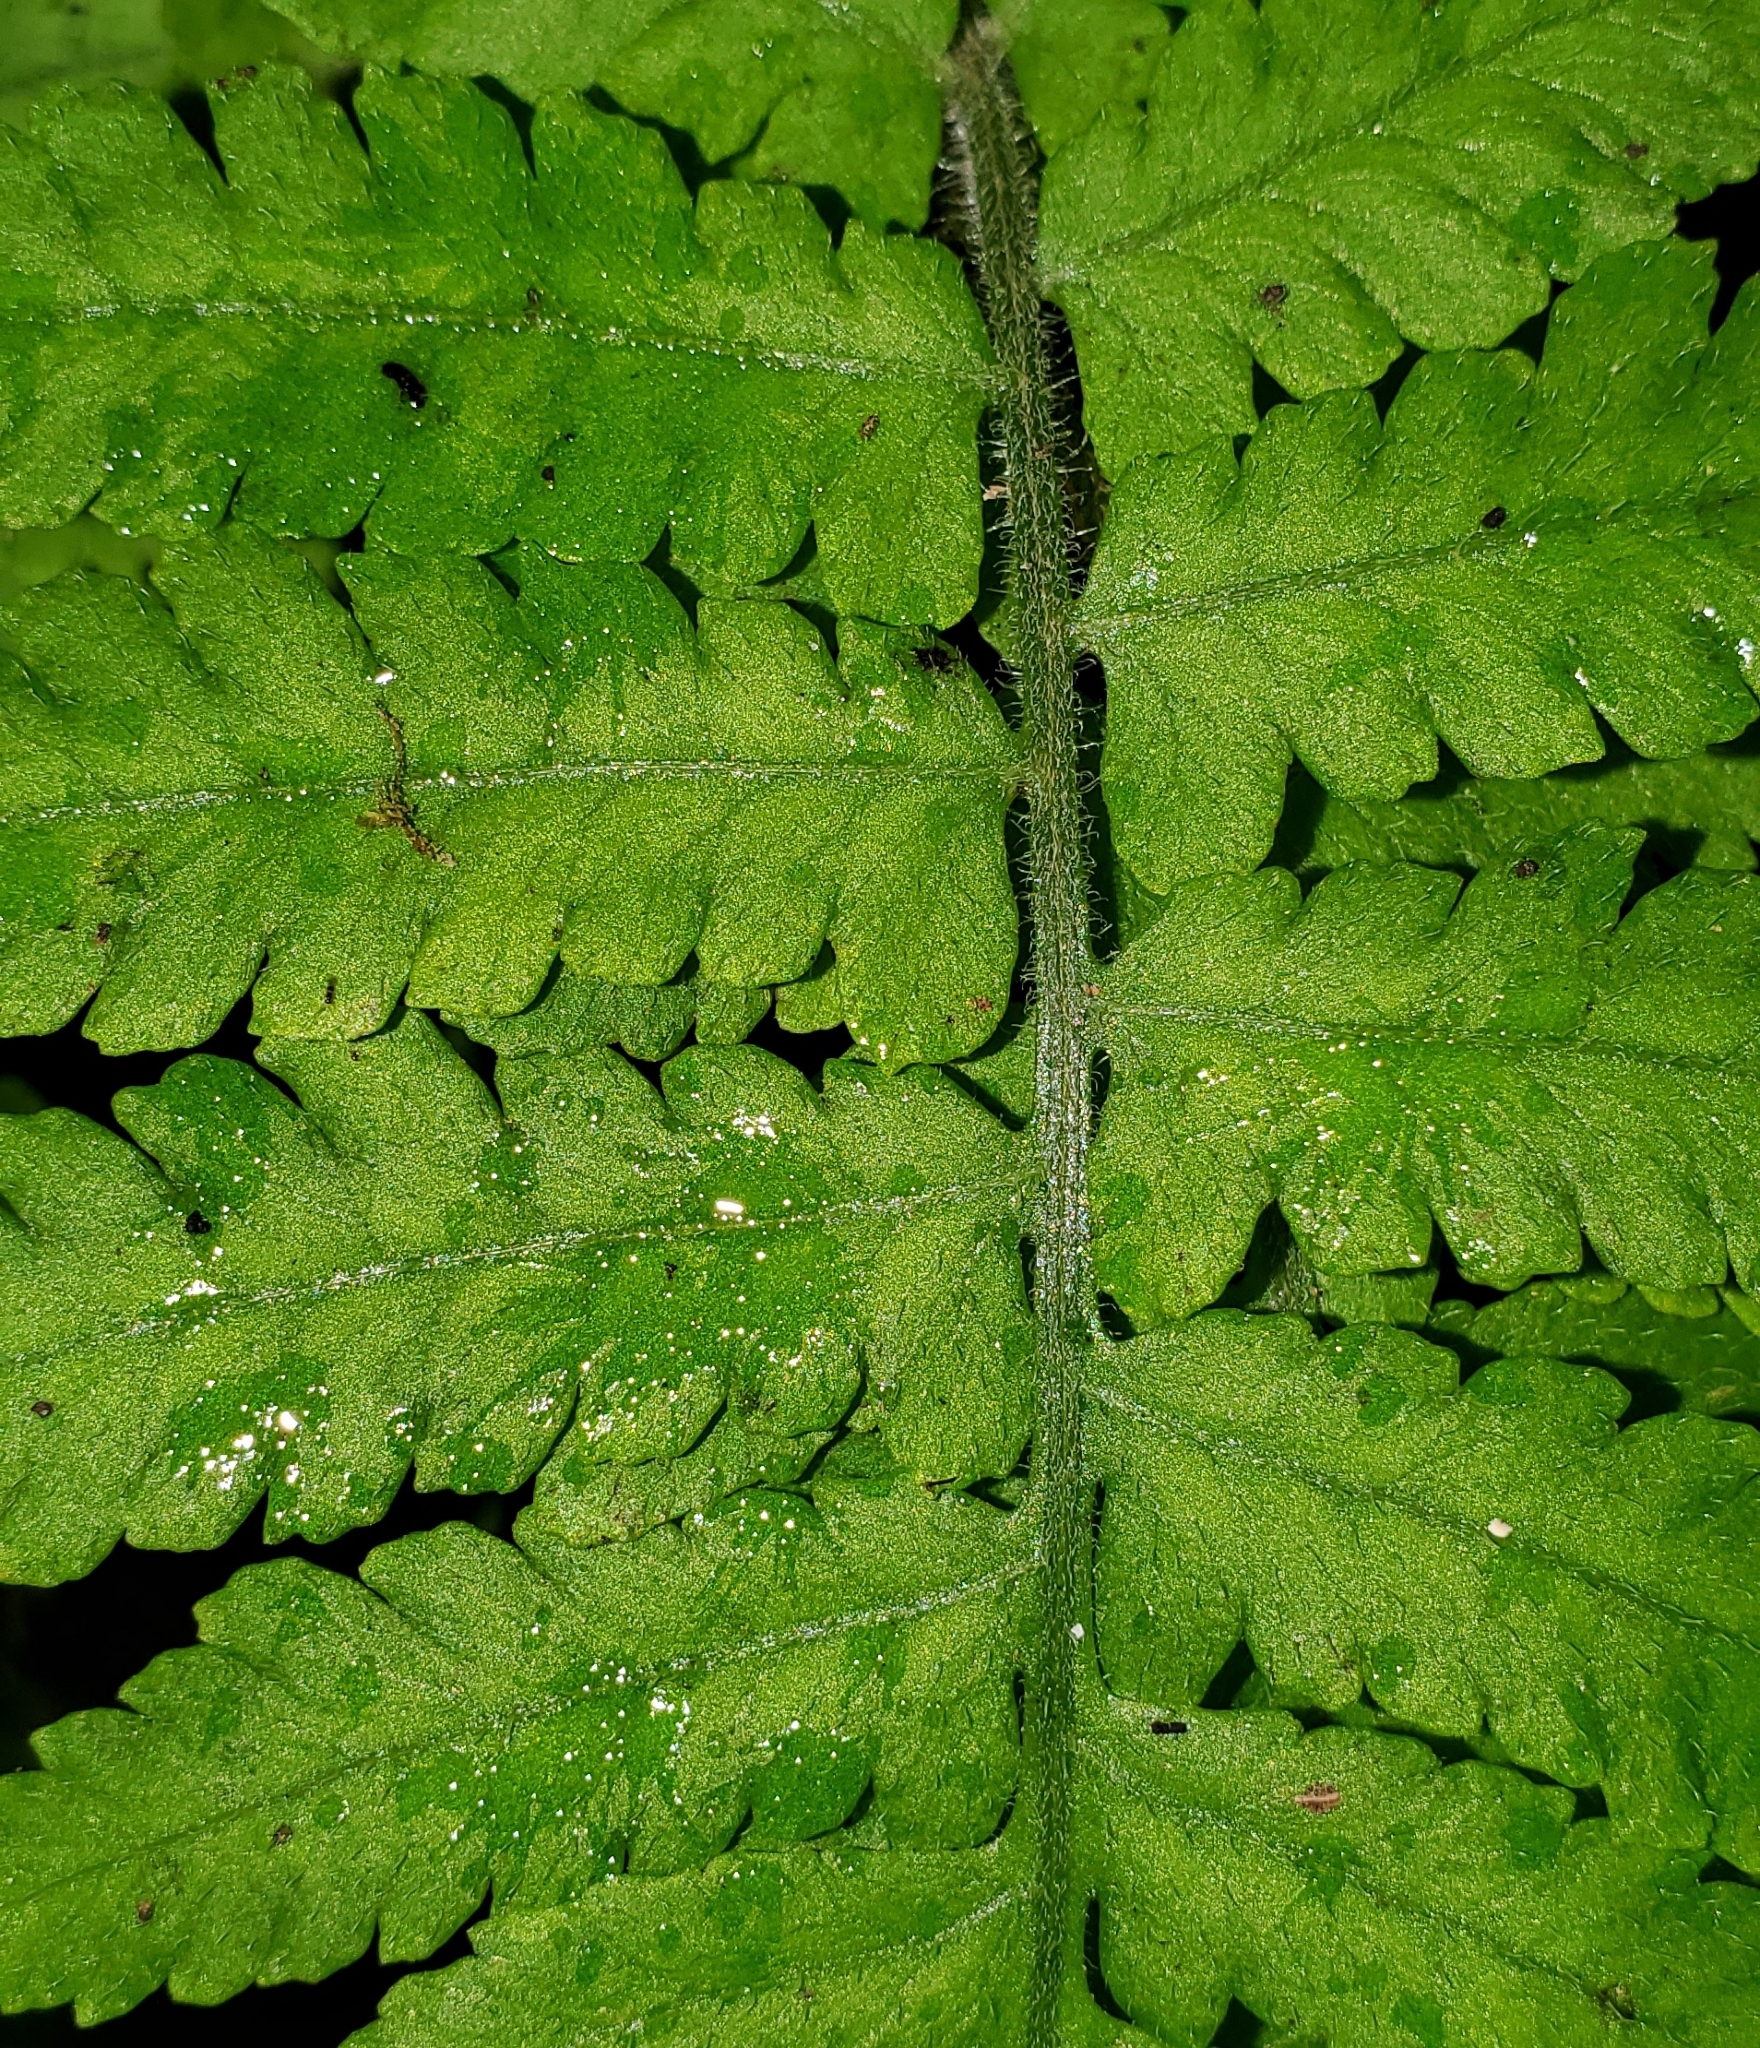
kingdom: Plantae
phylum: Tracheophyta
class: Polypodiopsida
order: Polypodiales
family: Athyriaceae
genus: Deparia
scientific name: Deparia petersenii
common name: Japanese false spleenwort
